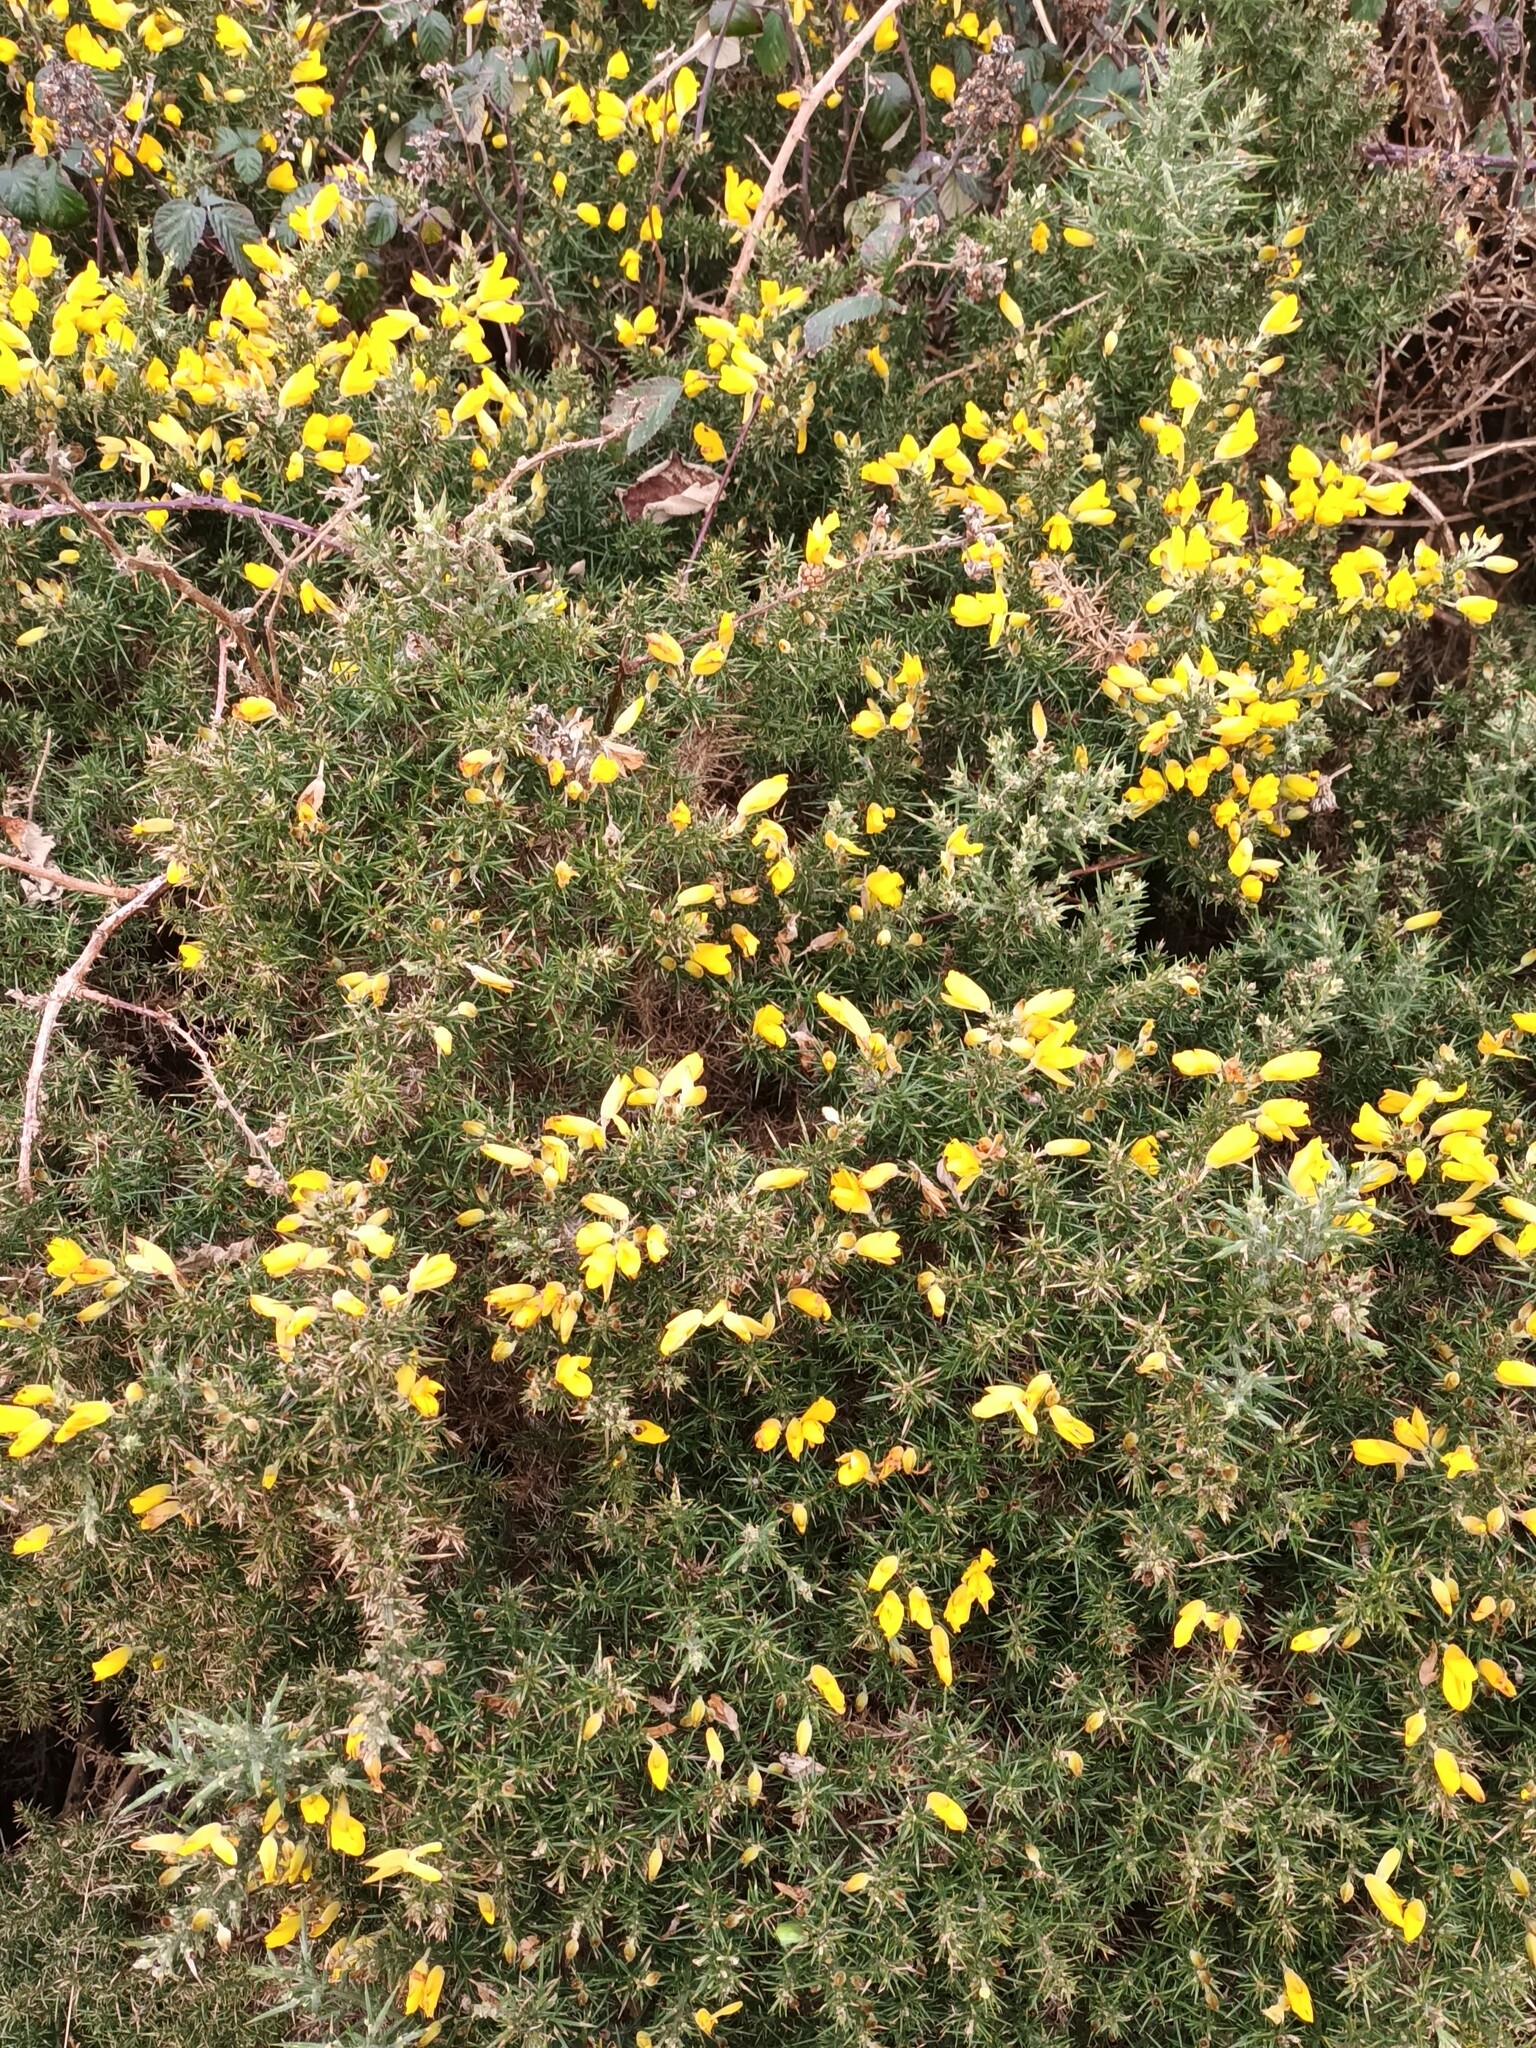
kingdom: Plantae
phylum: Tracheophyta
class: Magnoliopsida
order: Fabales
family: Fabaceae
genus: Ulex
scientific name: Ulex europaeus
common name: Common gorse
